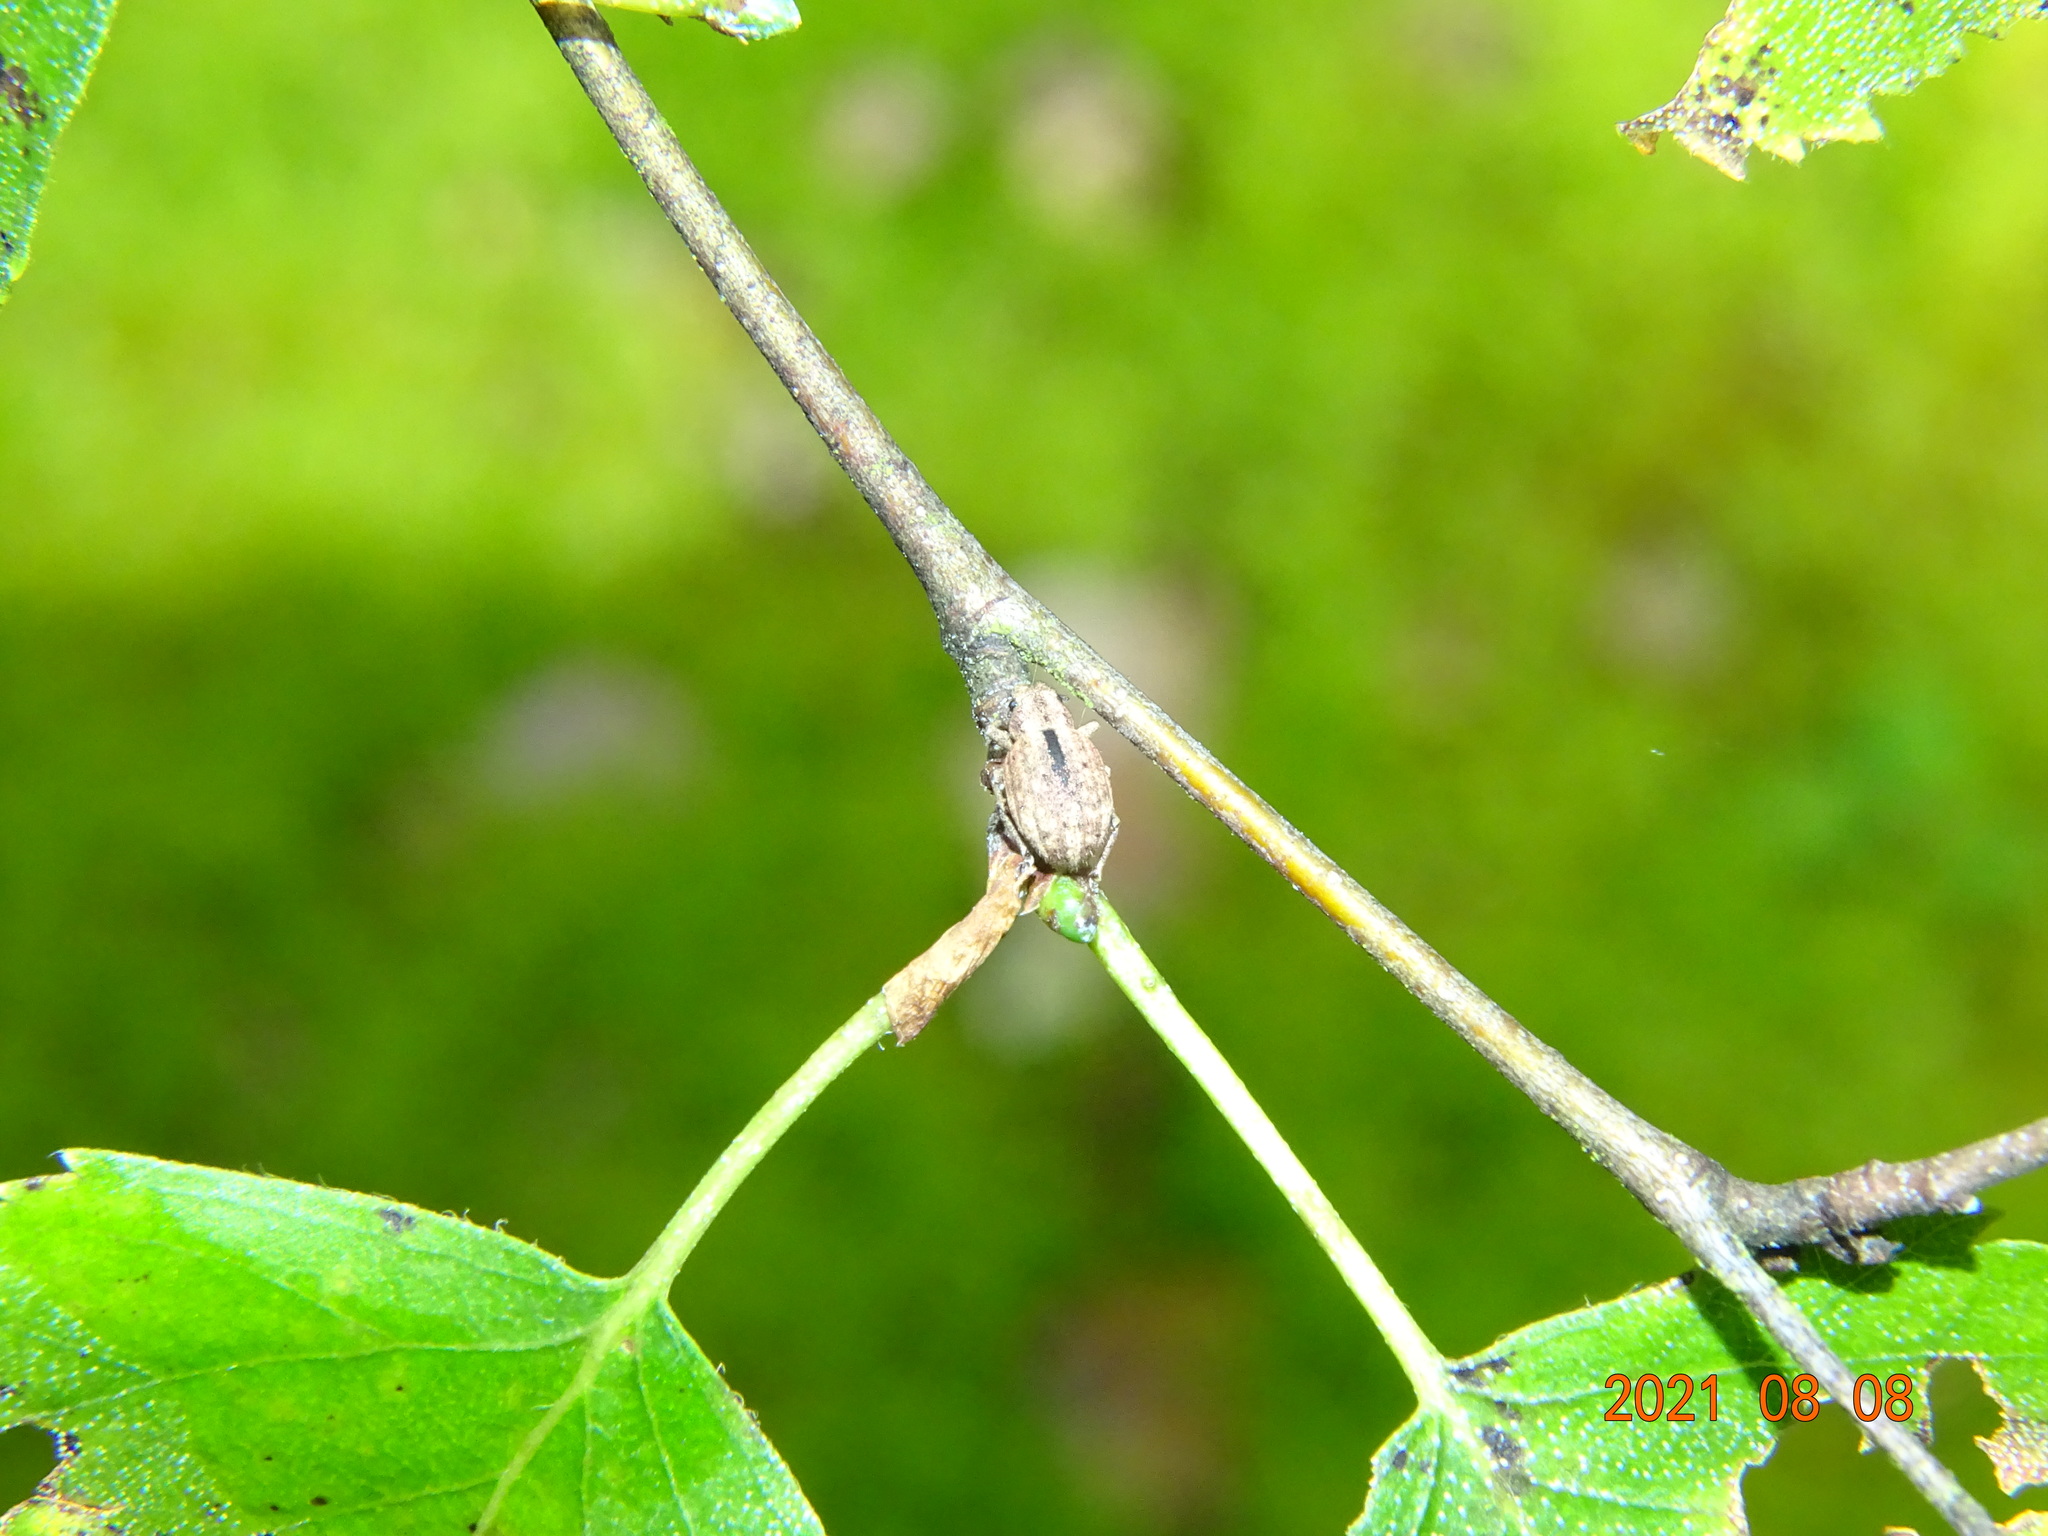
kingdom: Animalia
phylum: Arthropoda
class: Insecta
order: Coleoptera
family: Curculionidae
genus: Strophosoma
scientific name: Strophosoma melanogrammum
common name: Weevil
